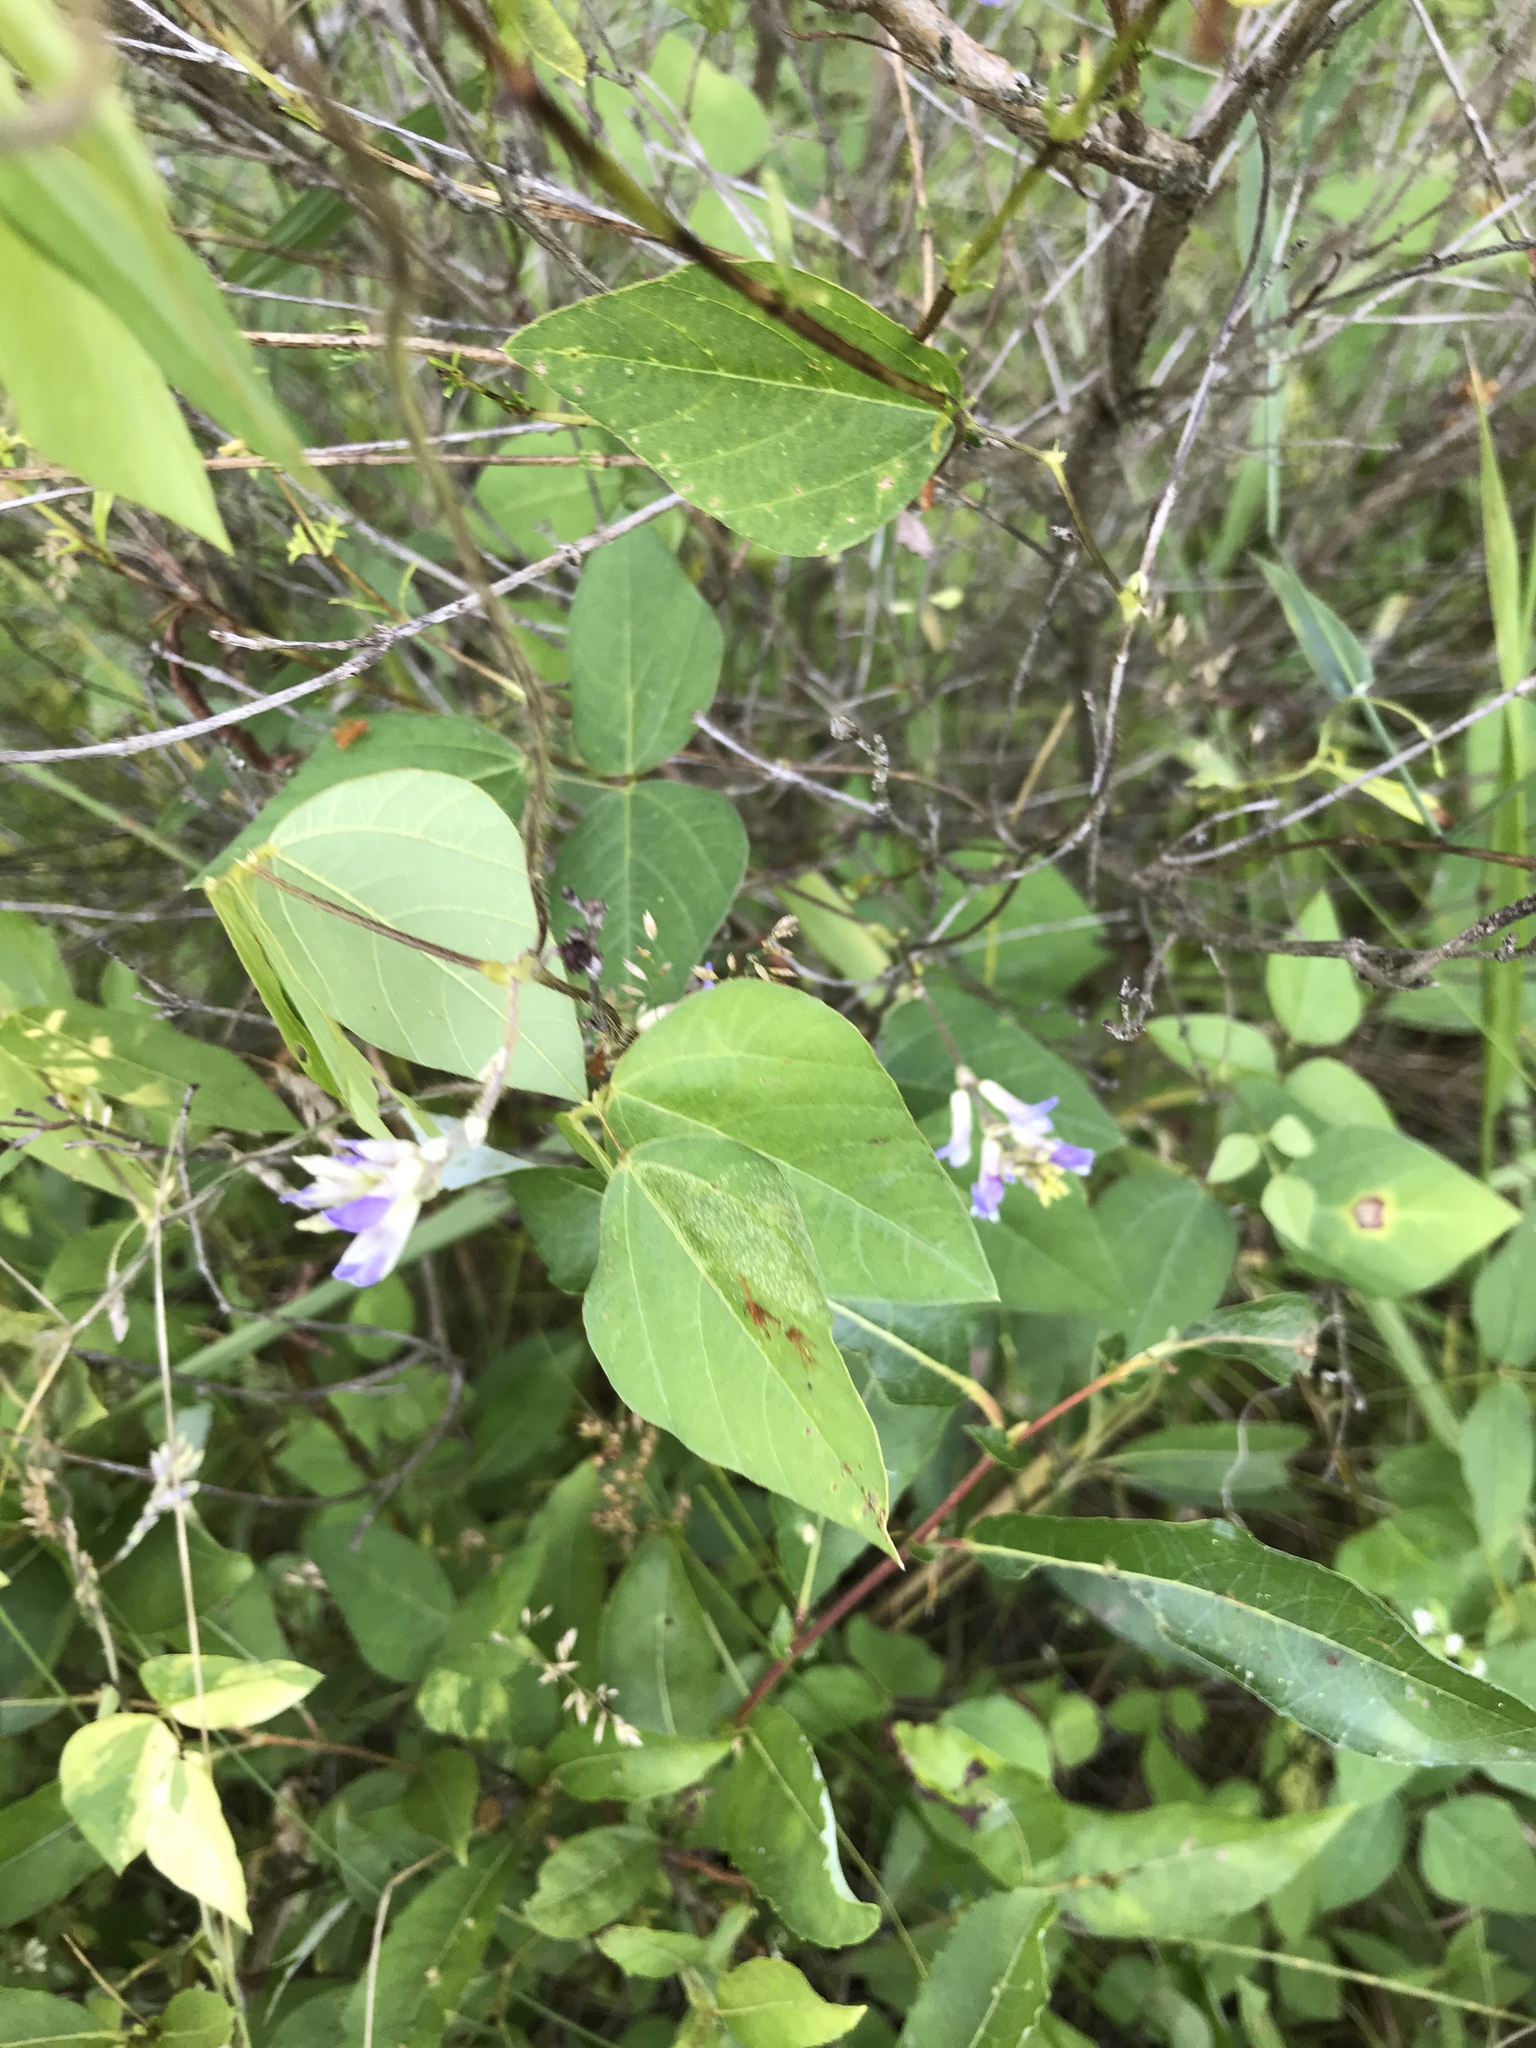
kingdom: Plantae
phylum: Tracheophyta
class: Magnoliopsida
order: Fabales
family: Fabaceae
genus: Amphicarpaea
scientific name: Amphicarpaea bracteata
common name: American hog peanut
